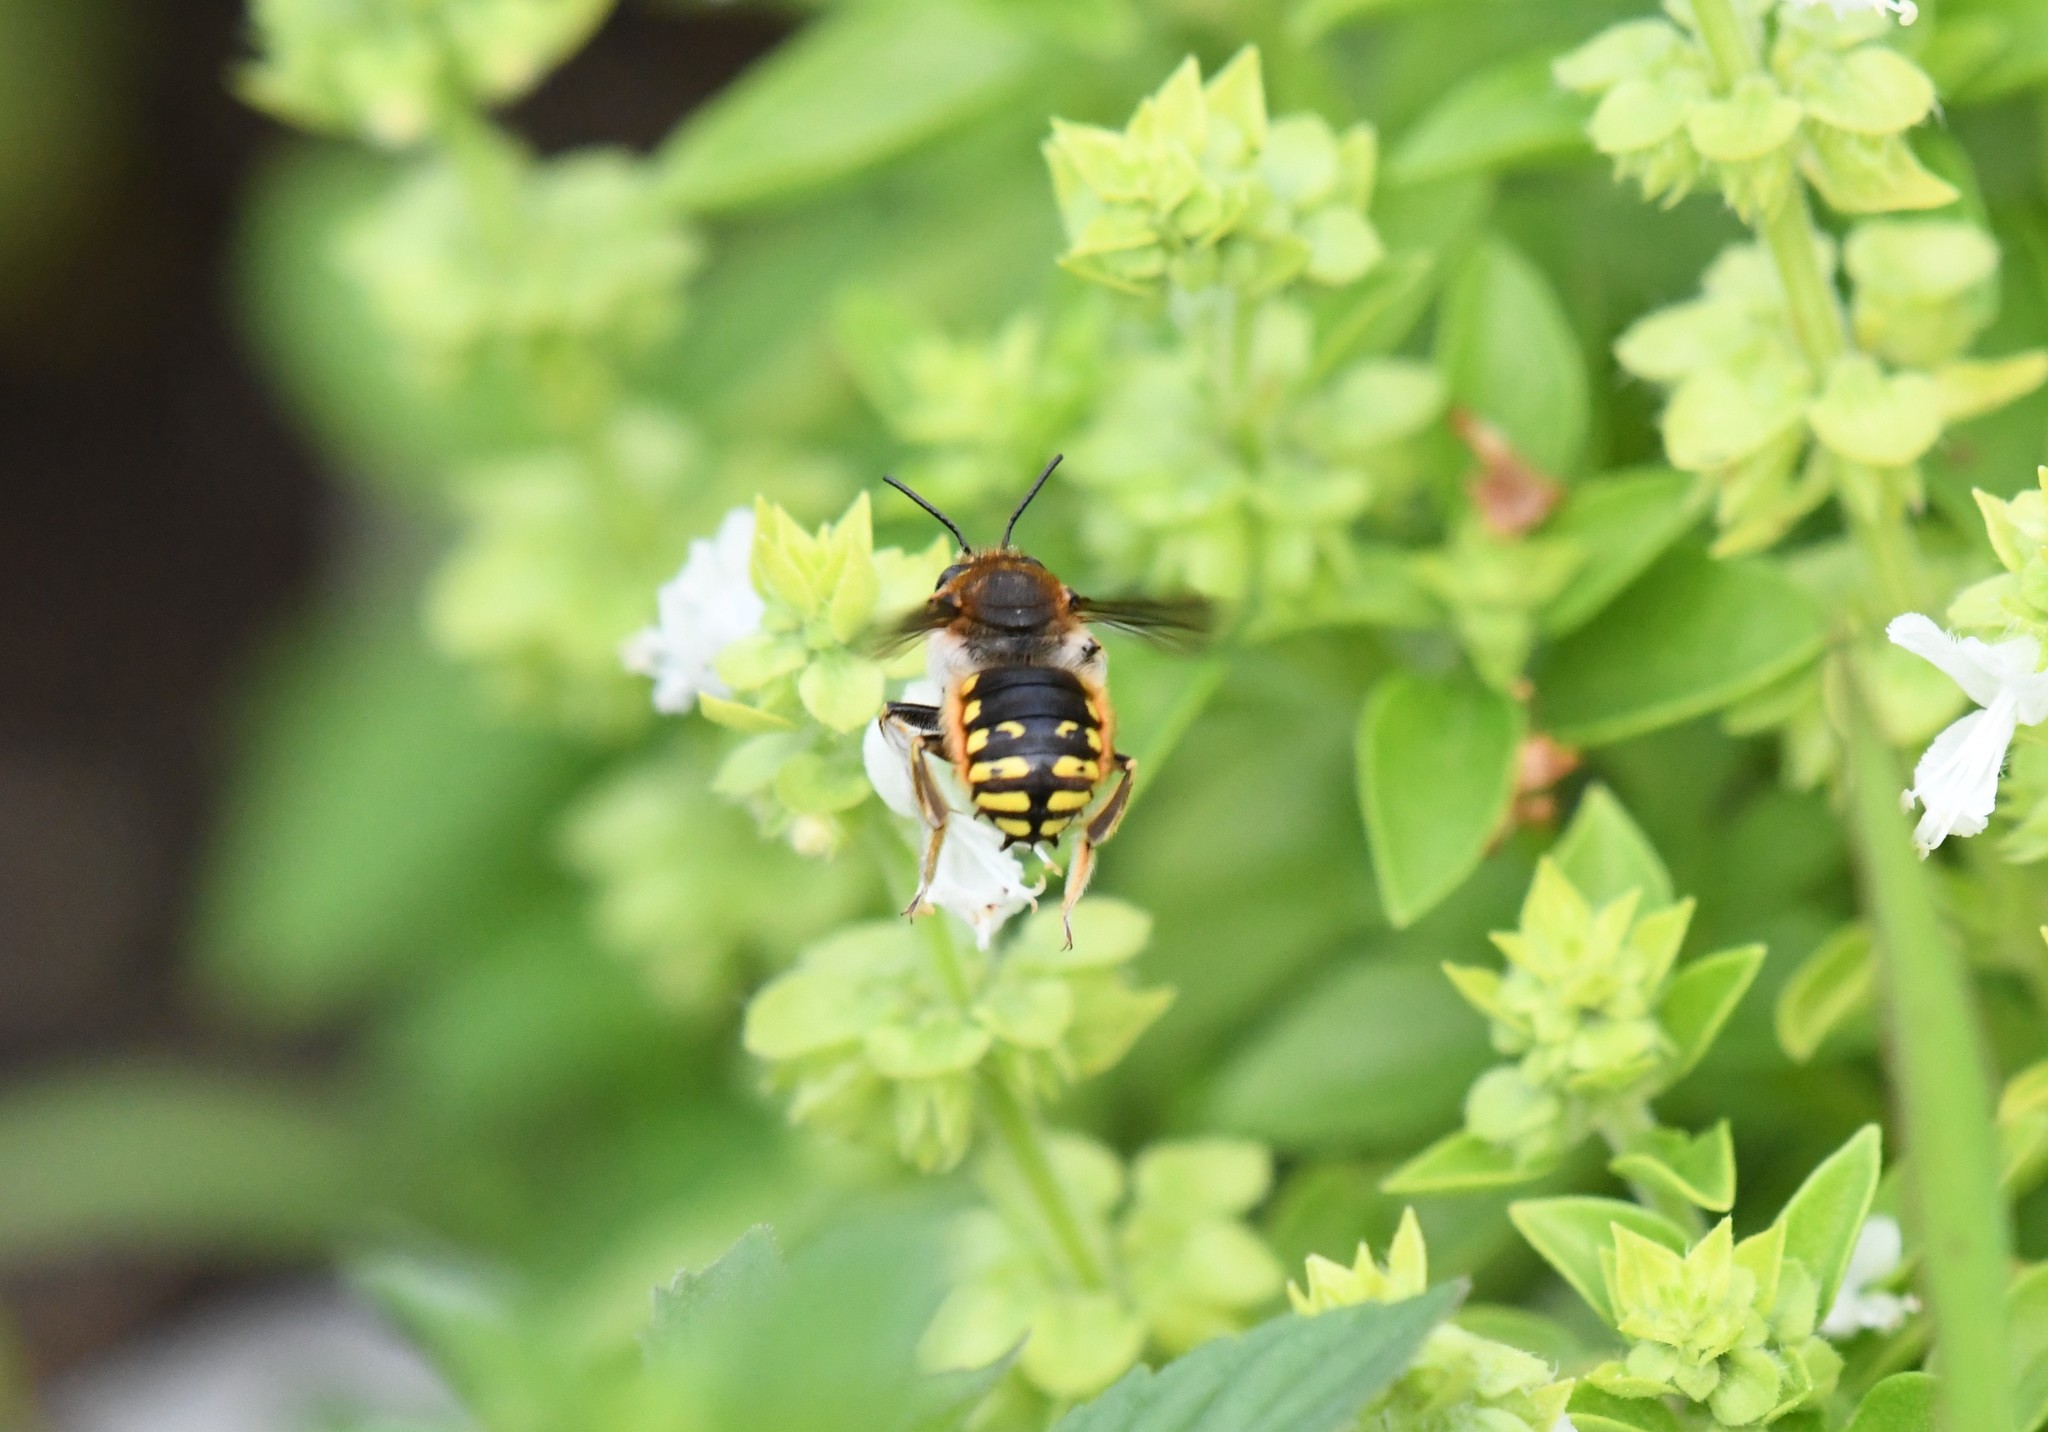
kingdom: Animalia
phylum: Arthropoda
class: Insecta
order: Hymenoptera
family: Megachilidae
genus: Anthidium
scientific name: Anthidium manicatum
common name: Wool carder bee
